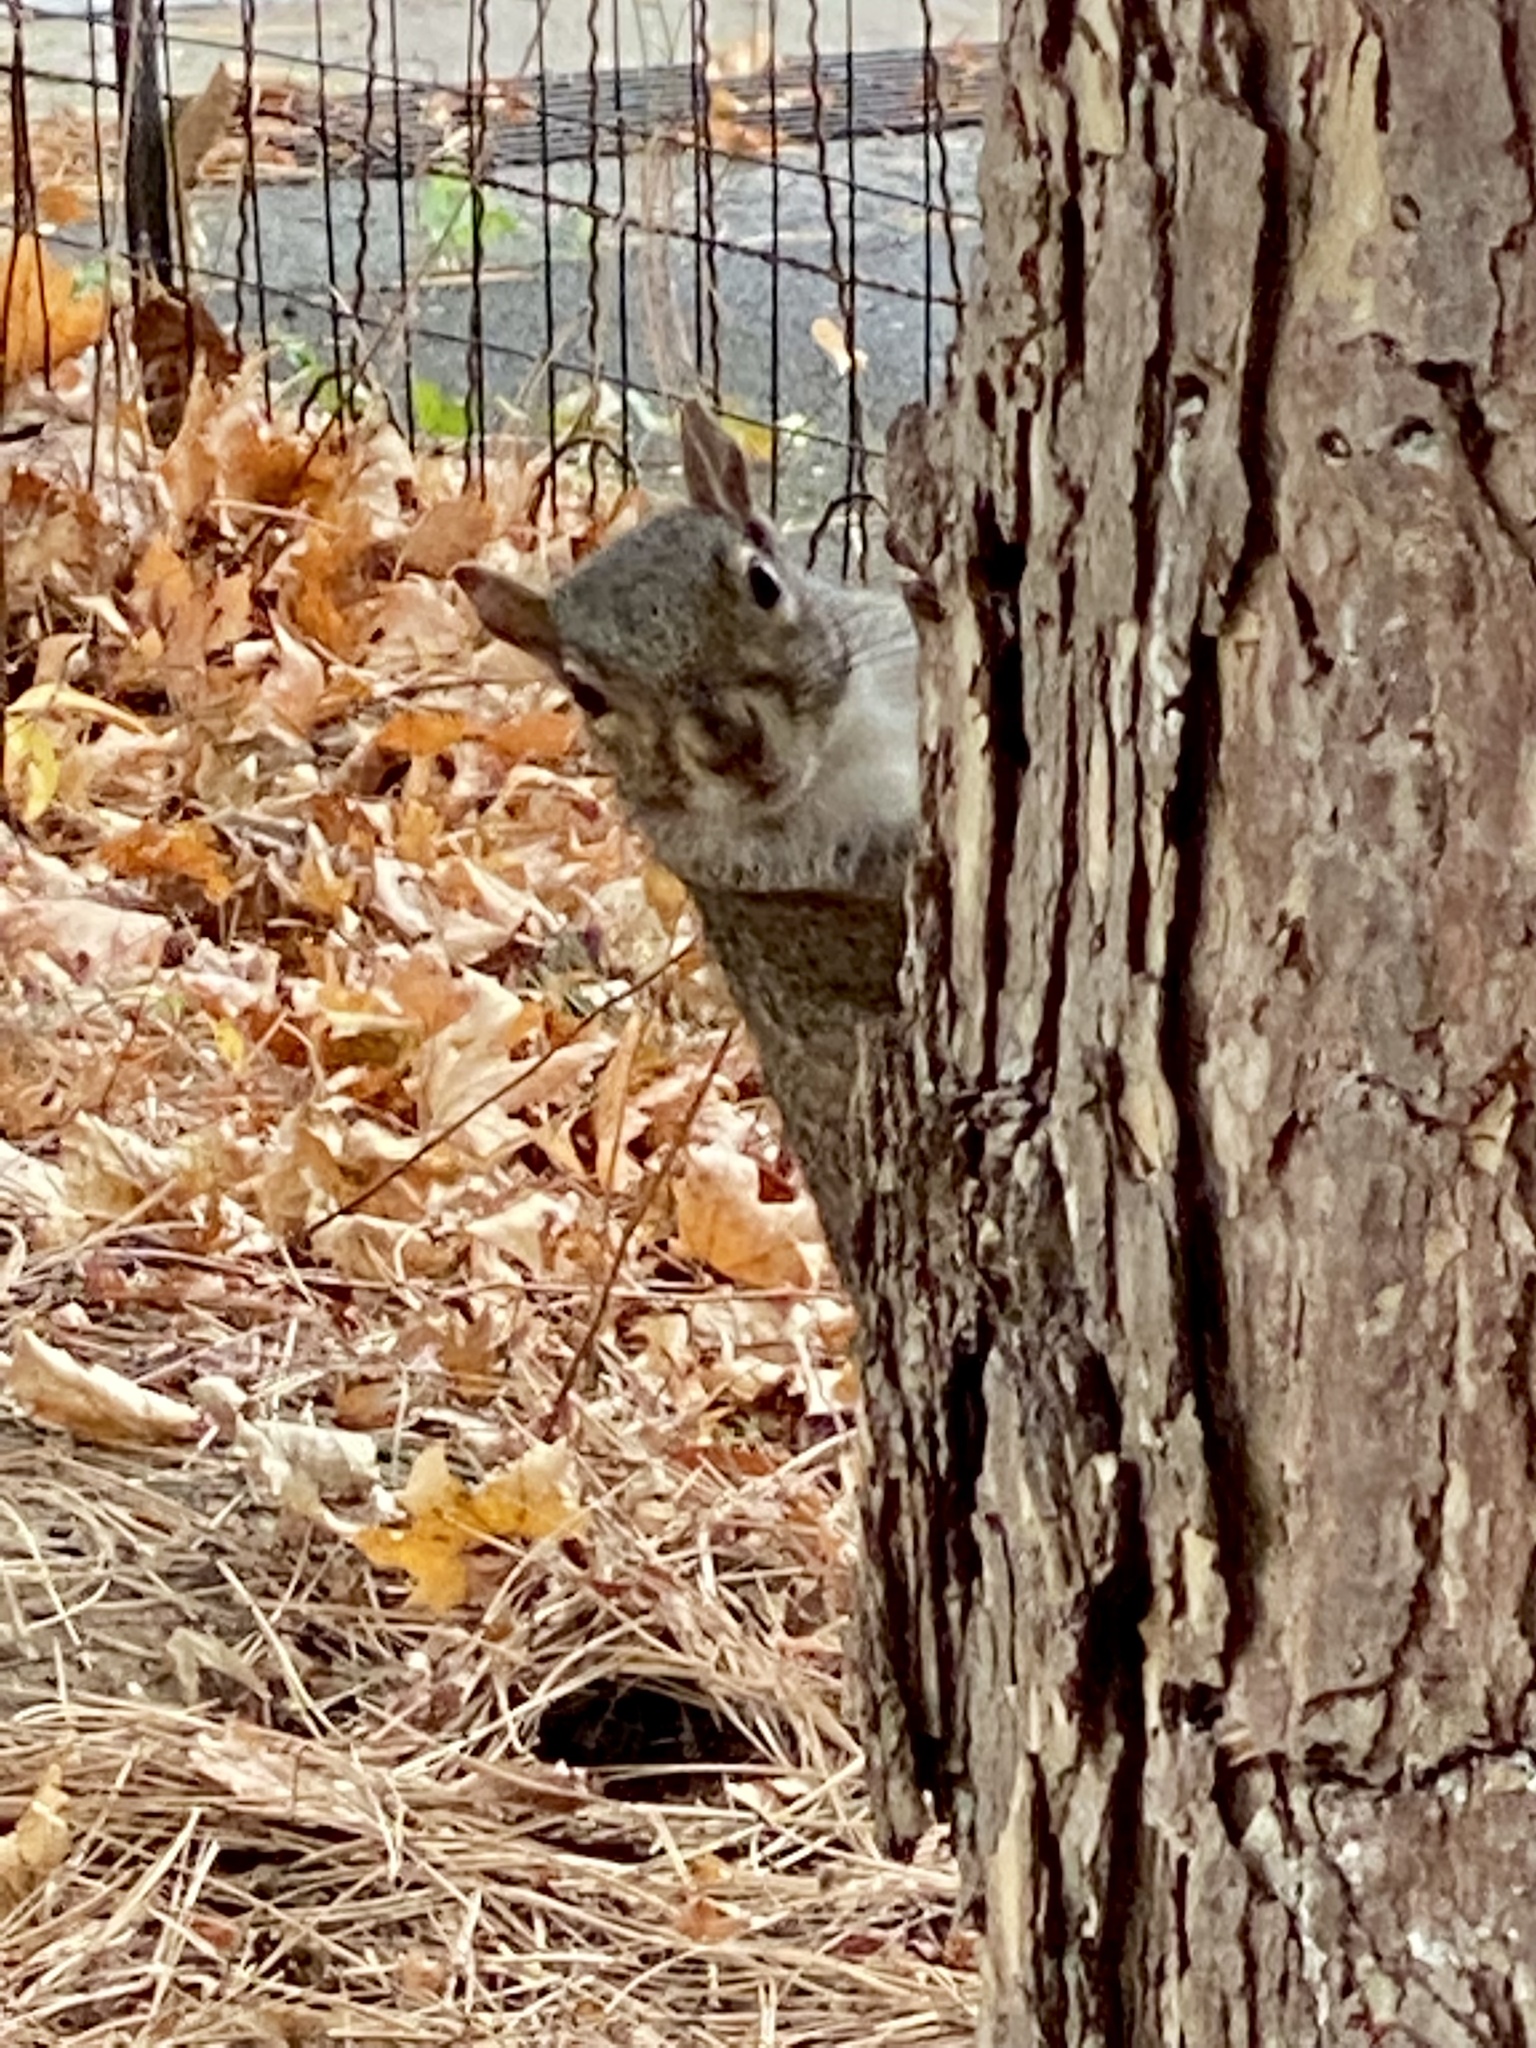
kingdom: Animalia
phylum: Chordata
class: Mammalia
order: Rodentia
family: Sciuridae
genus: Sciurus
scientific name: Sciurus carolinensis
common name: Eastern gray squirrel
